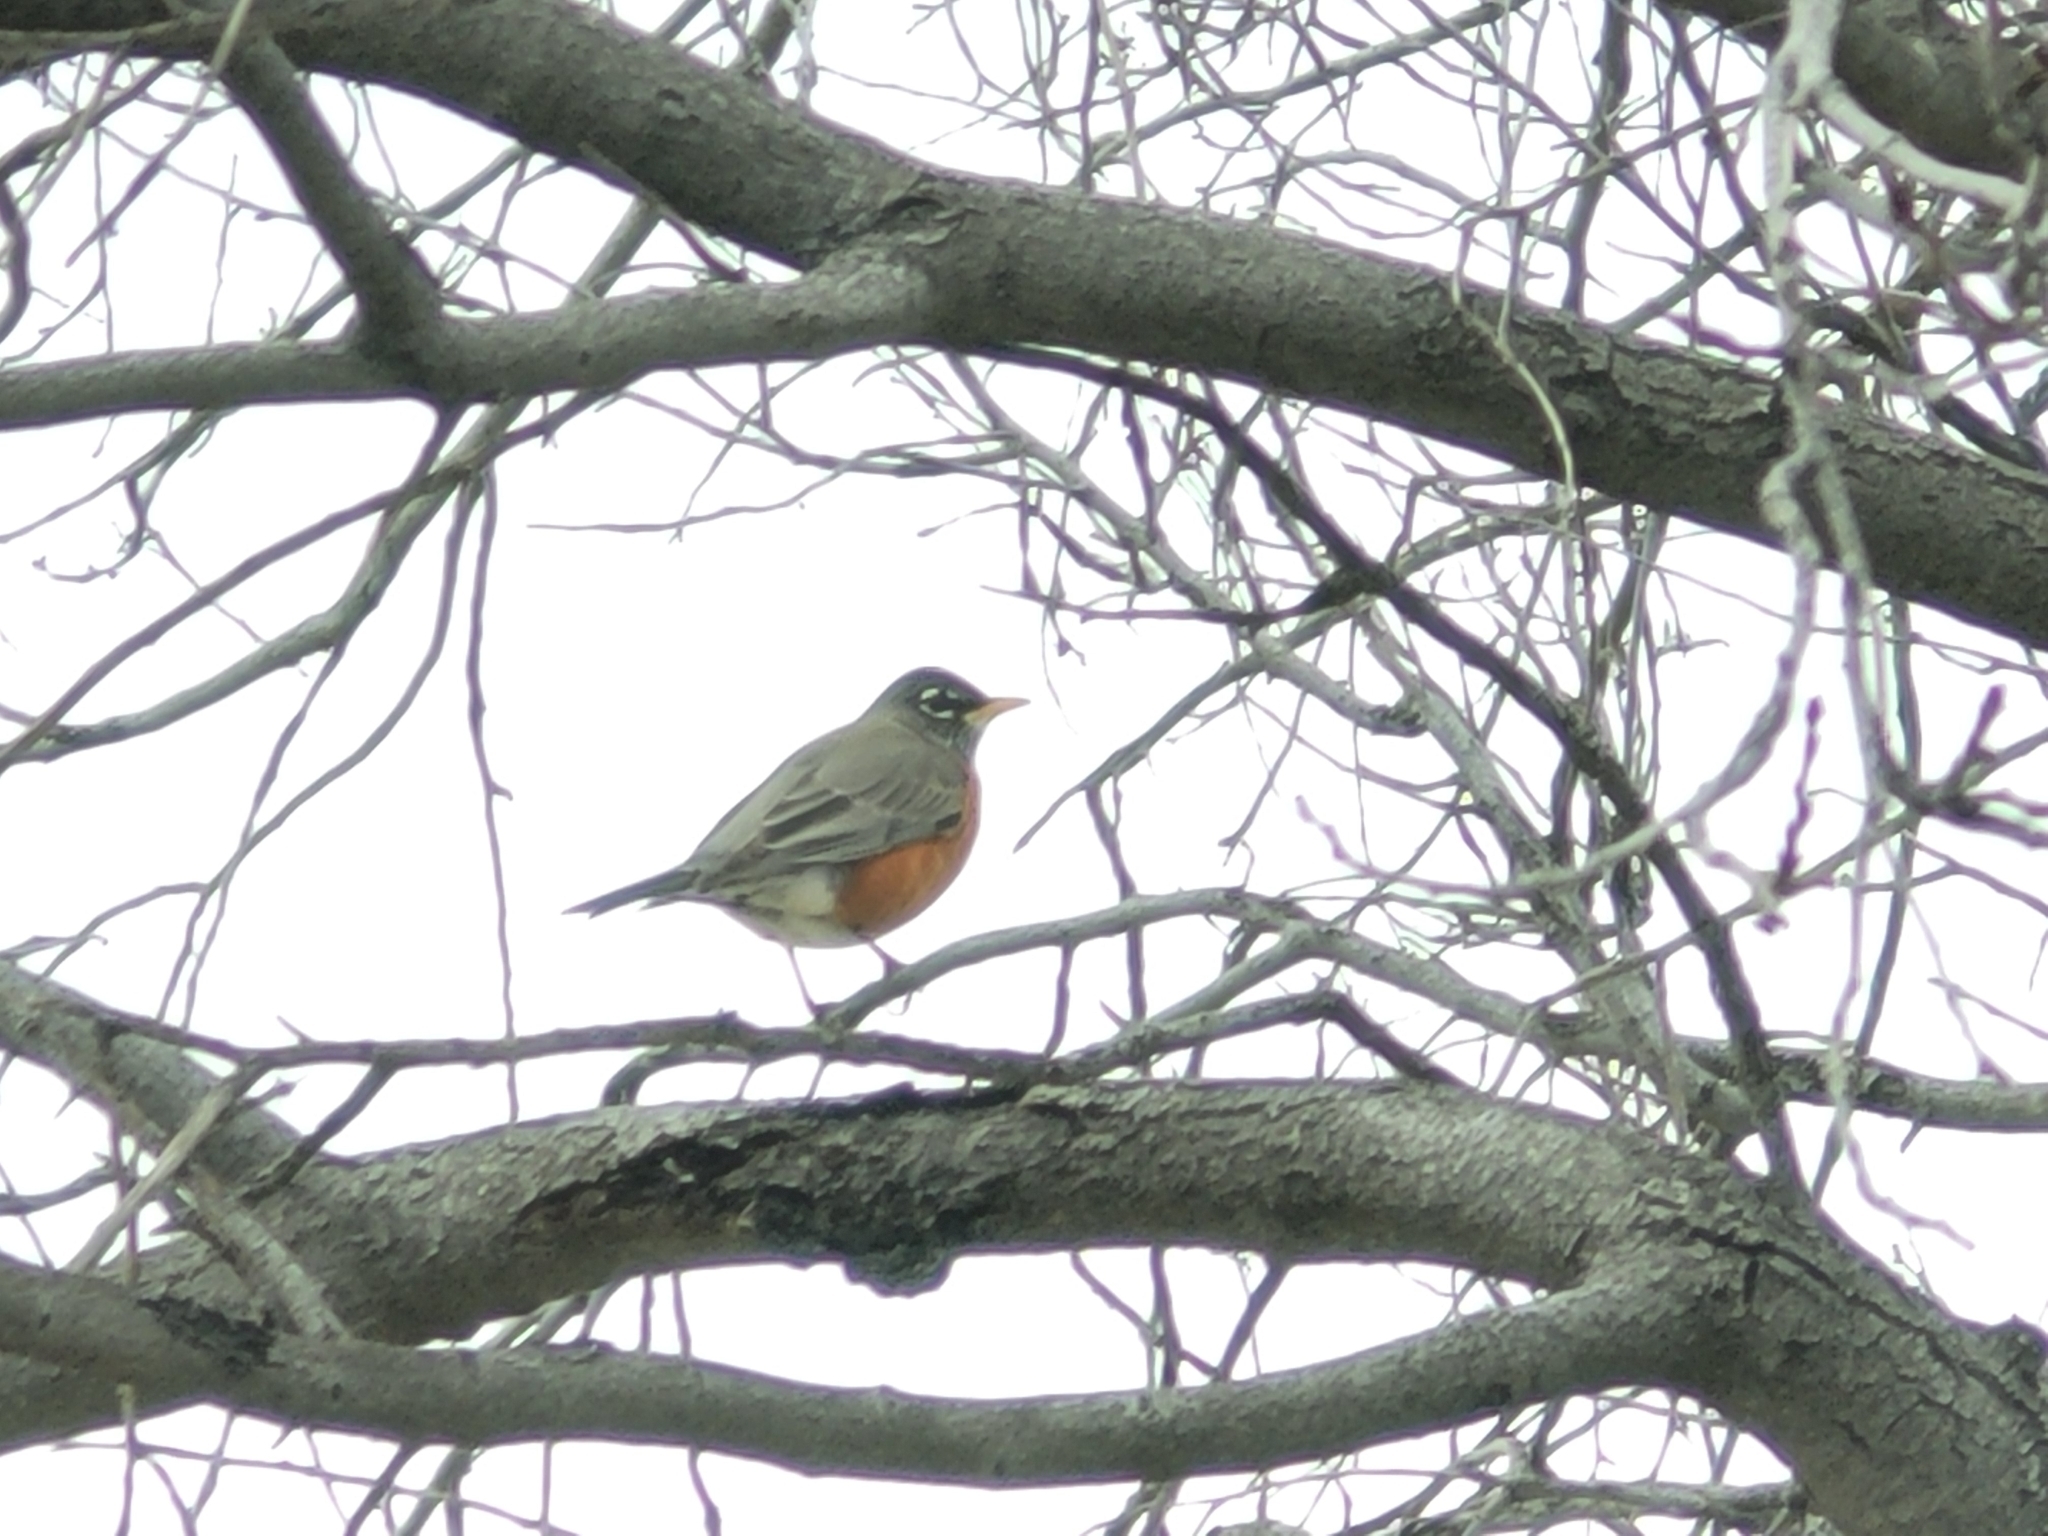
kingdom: Animalia
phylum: Chordata
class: Aves
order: Passeriformes
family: Turdidae
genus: Turdus
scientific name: Turdus migratorius
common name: American robin
